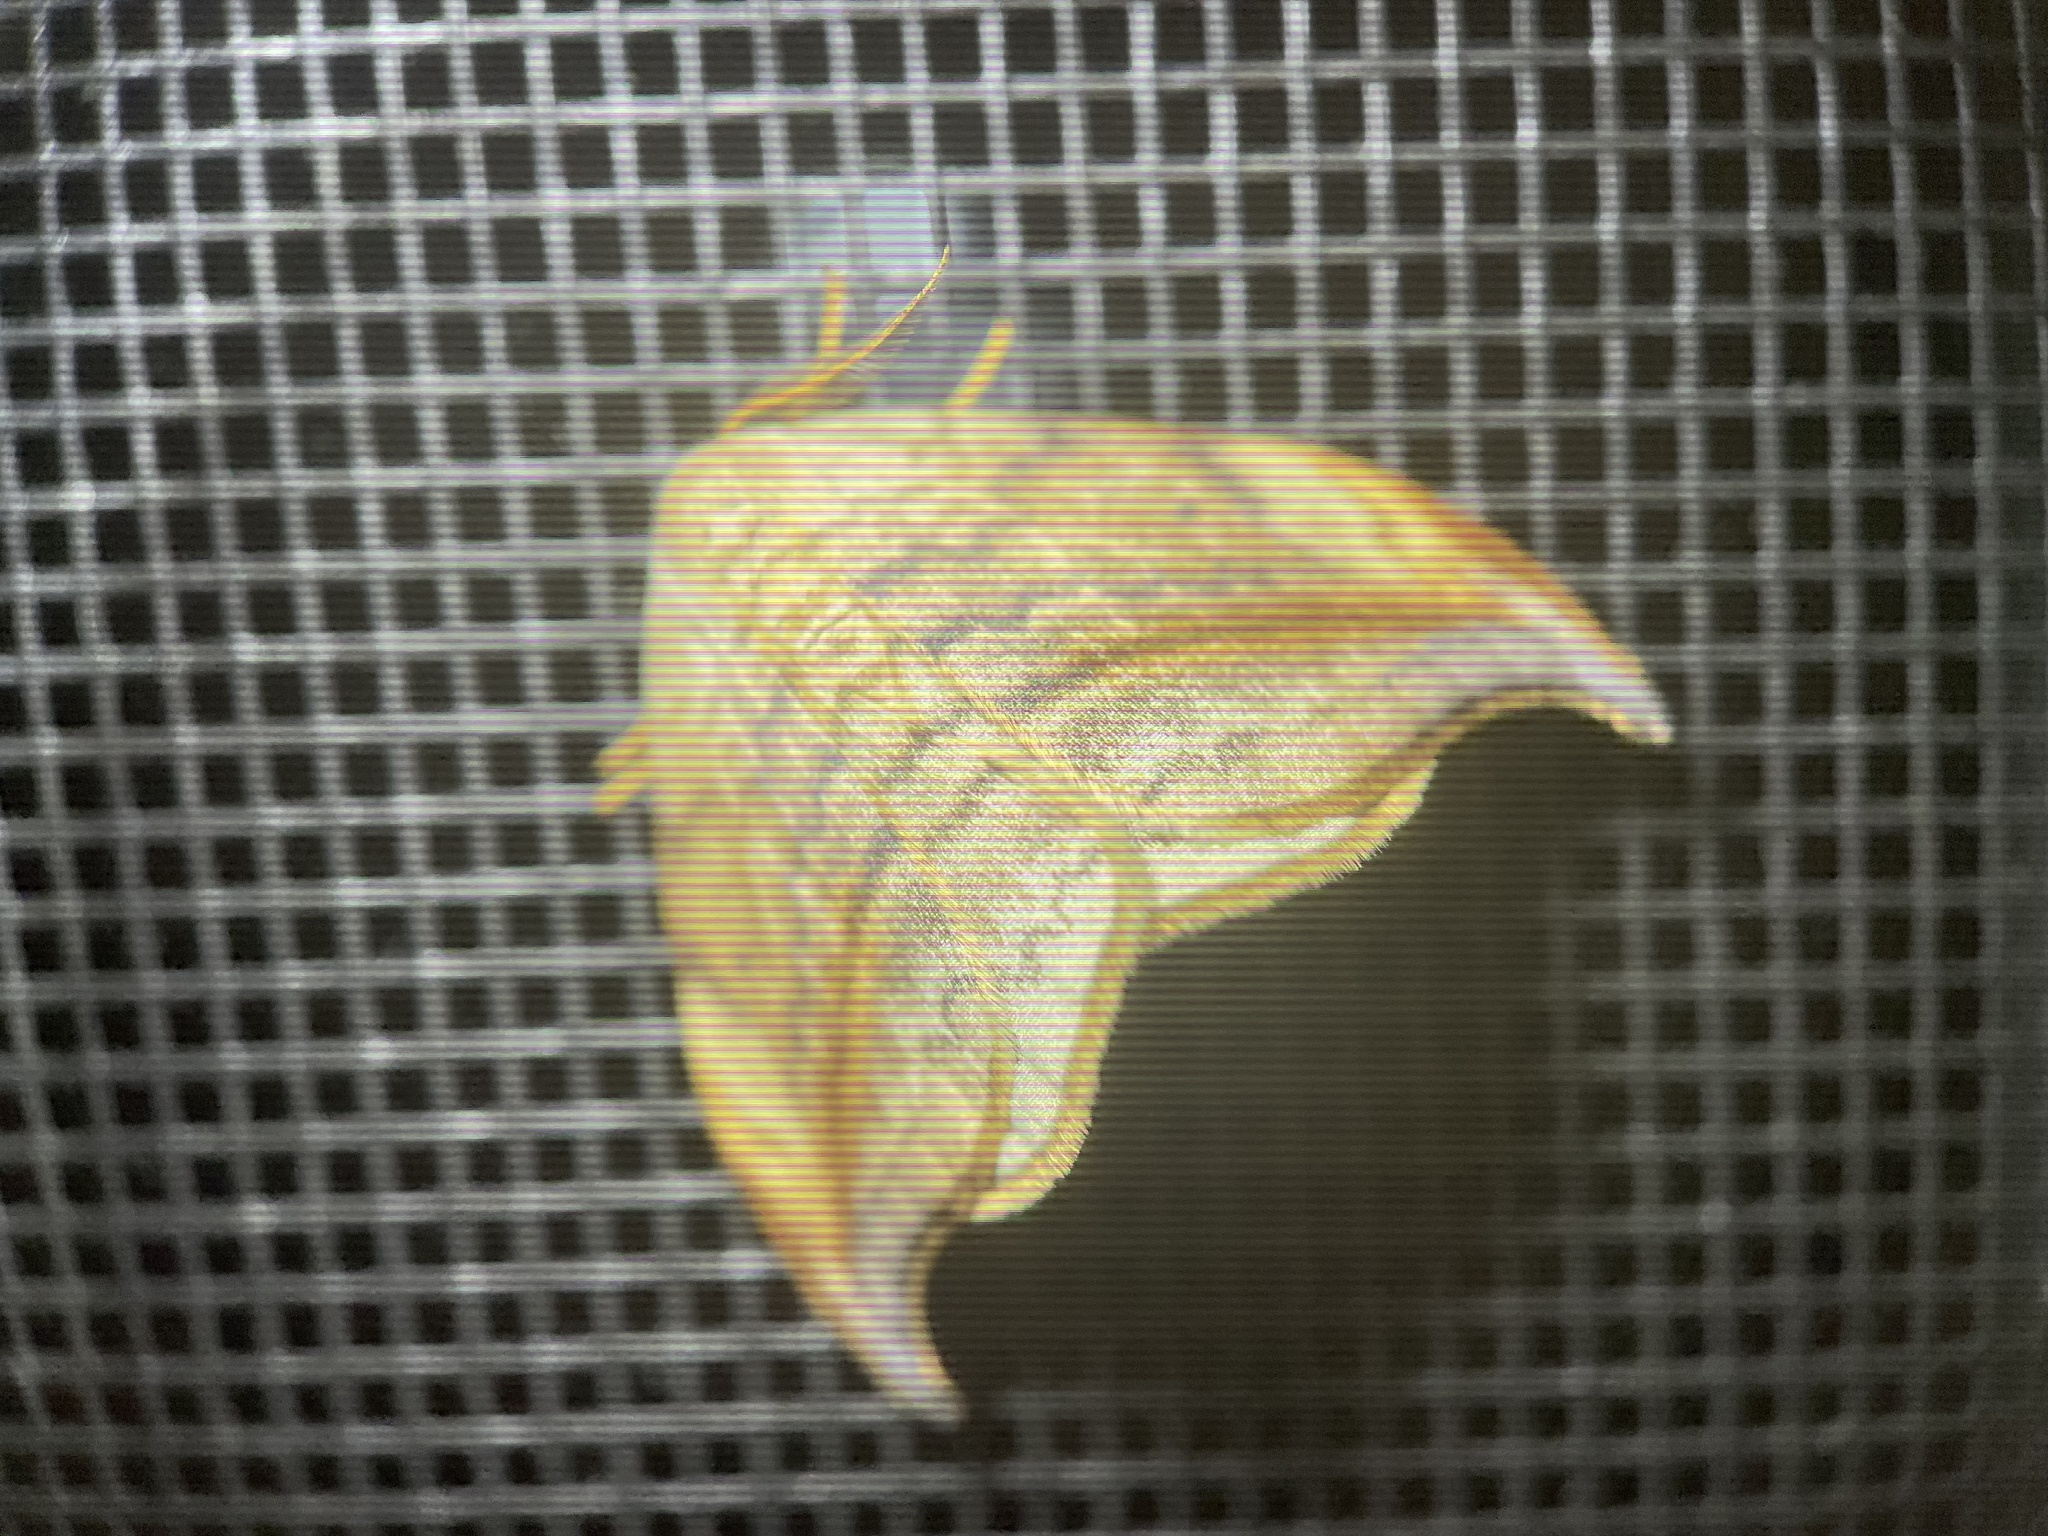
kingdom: Animalia
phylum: Arthropoda
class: Insecta
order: Lepidoptera
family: Drepanidae
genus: Drepana
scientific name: Drepana arcuata
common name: Arched hooktip moth
